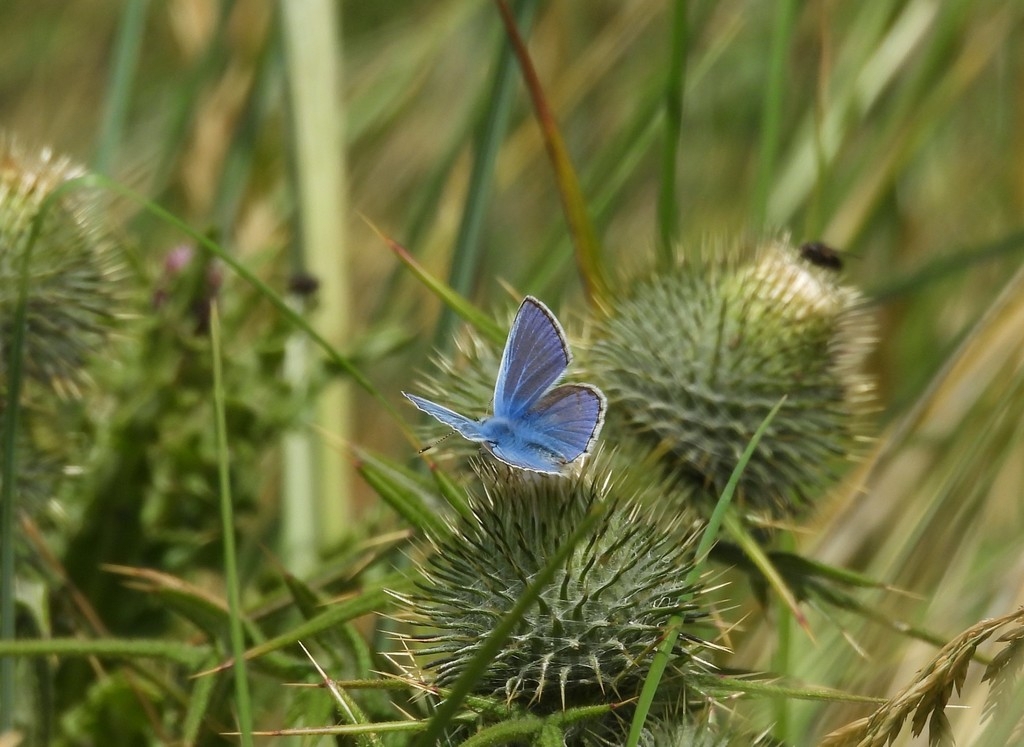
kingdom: Animalia
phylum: Arthropoda
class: Insecta
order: Lepidoptera
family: Lycaenidae
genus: Polyommatus
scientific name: Polyommatus icarus
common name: Common blue
